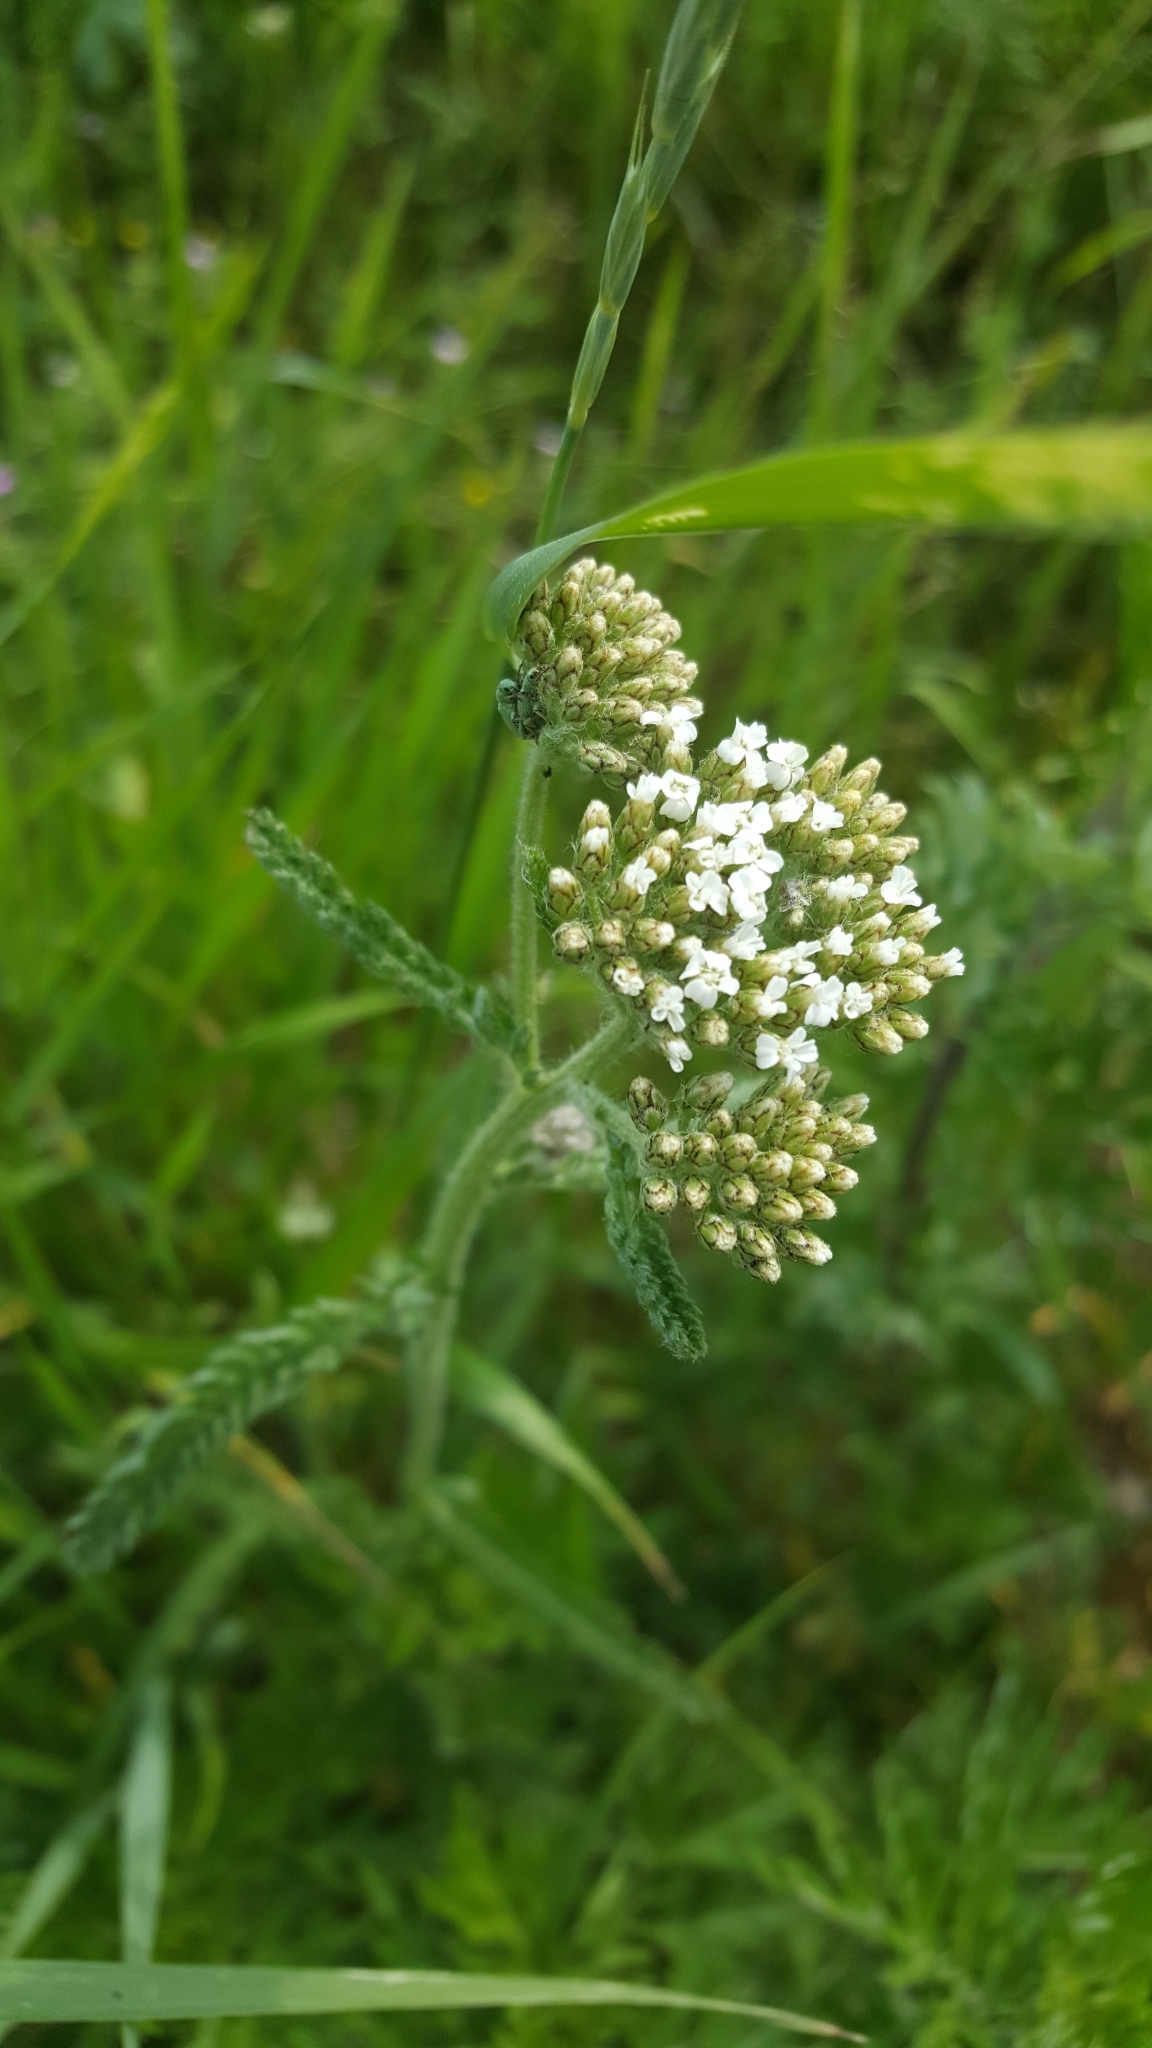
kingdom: Plantae
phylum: Tracheophyta
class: Magnoliopsida
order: Asterales
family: Asteraceae
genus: Achillea
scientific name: Achillea millefolium
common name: Yarrow
